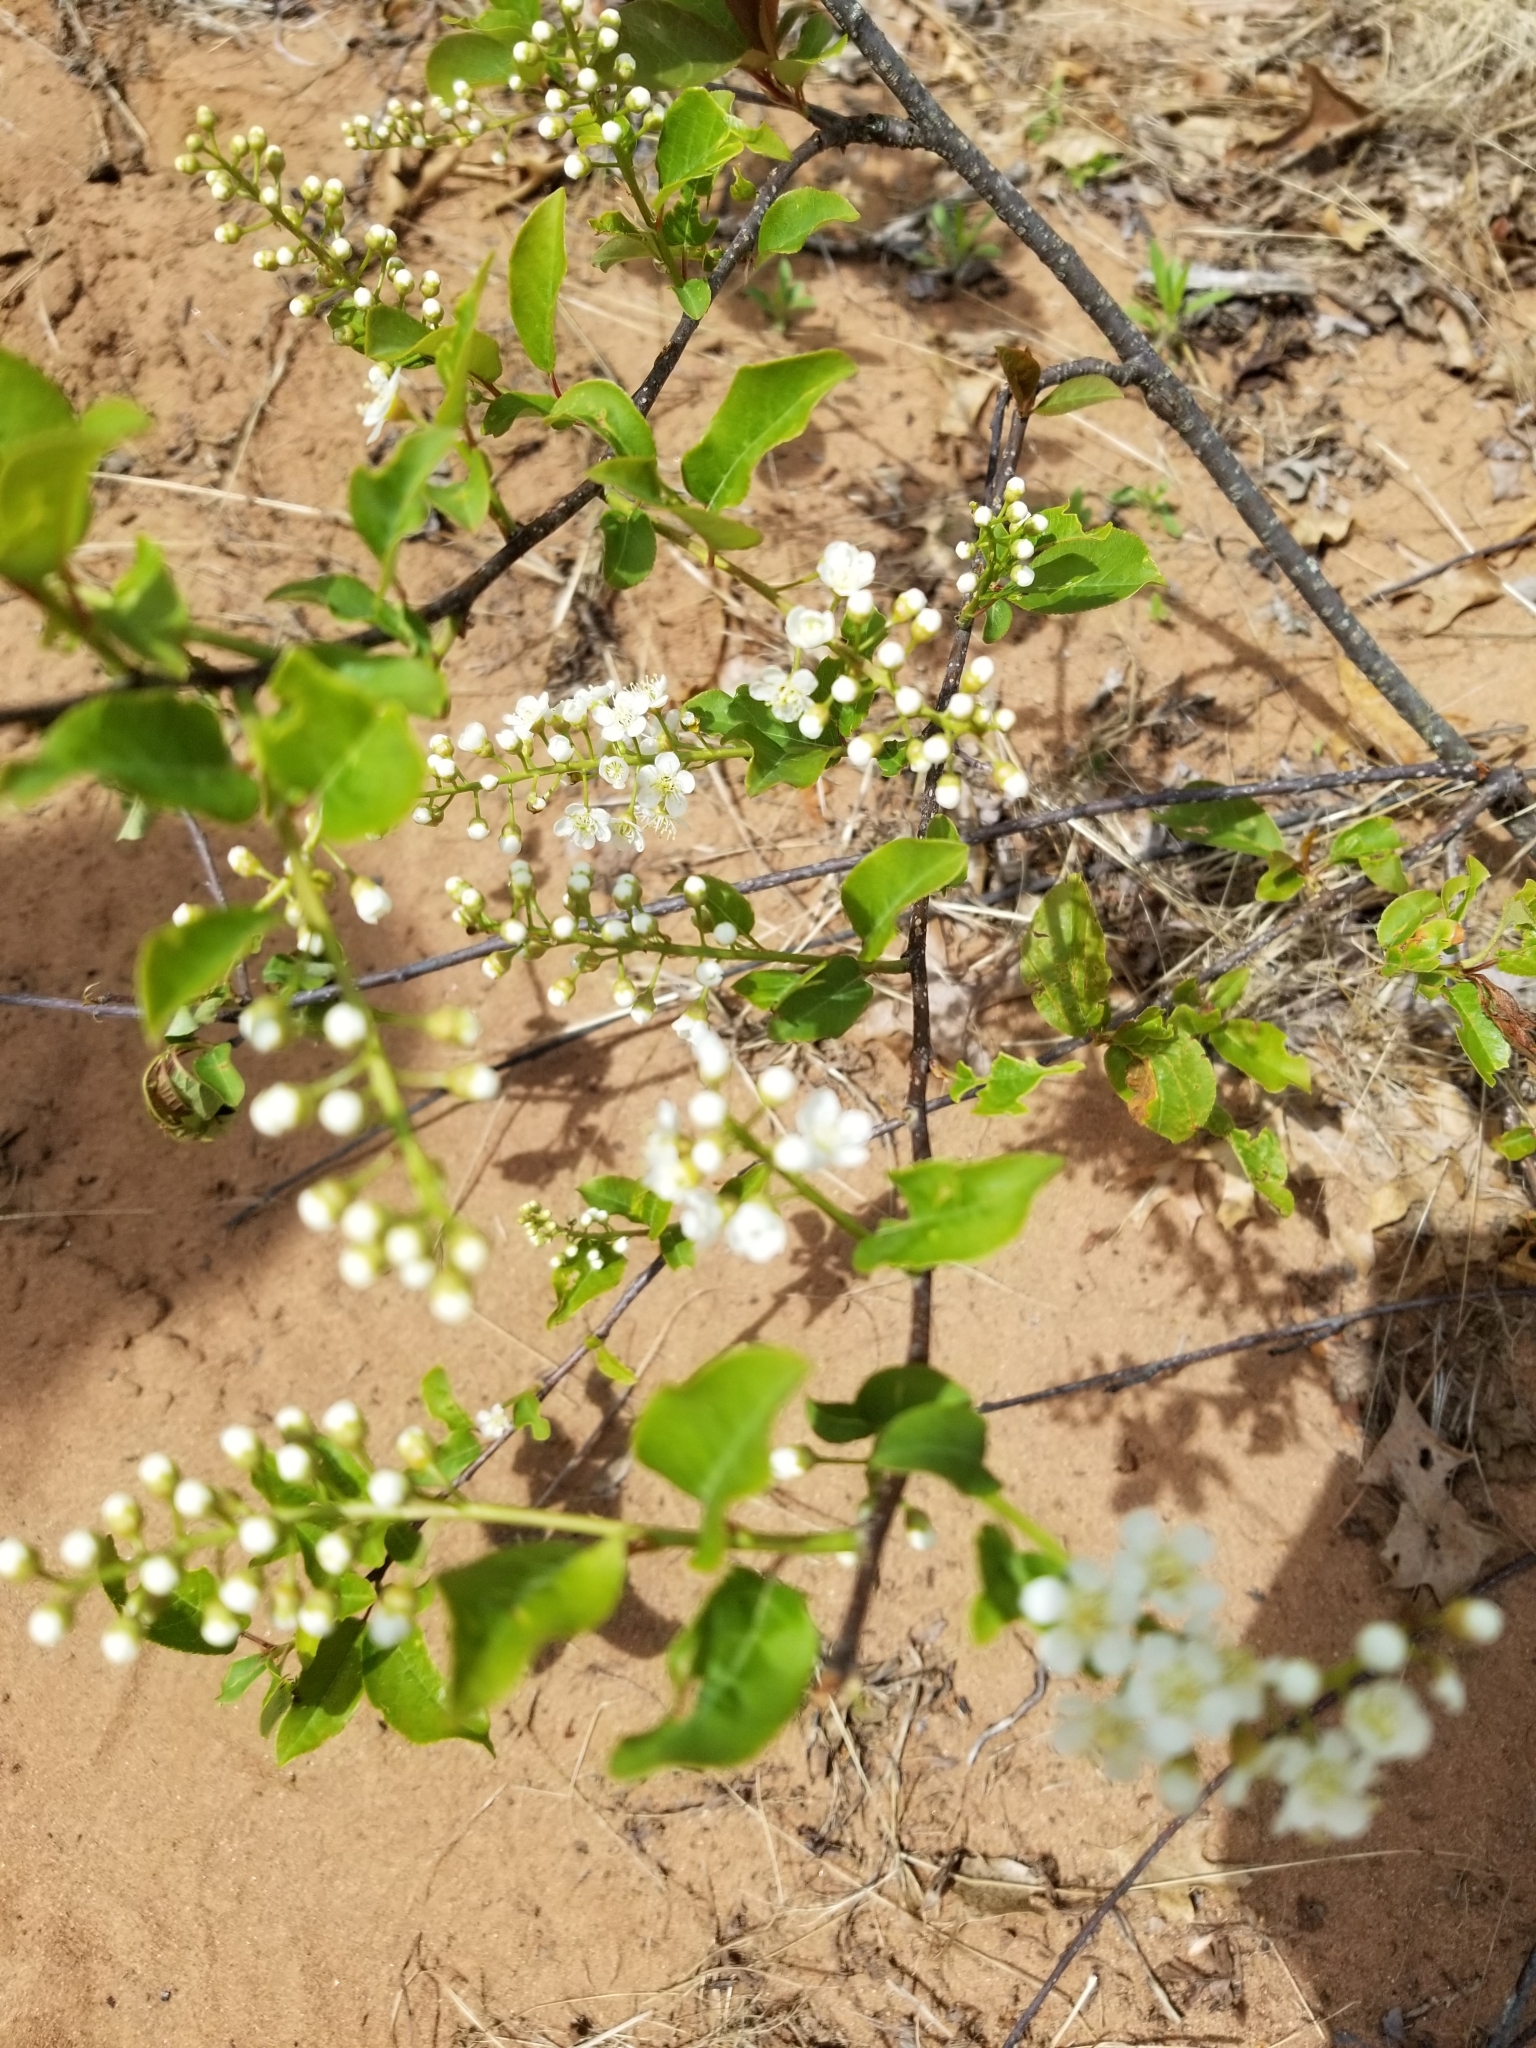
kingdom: Plantae
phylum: Tracheophyta
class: Magnoliopsida
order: Rosales
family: Rosaceae
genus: Prunus
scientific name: Prunus virginiana
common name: Chokecherry
